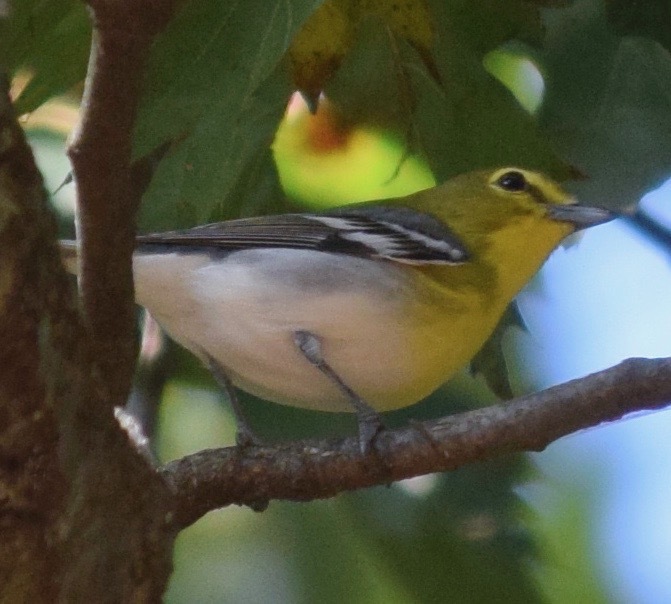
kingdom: Animalia
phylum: Chordata
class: Aves
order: Passeriformes
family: Vireonidae
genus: Vireo
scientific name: Vireo flavifrons
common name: Yellow-throated vireo
